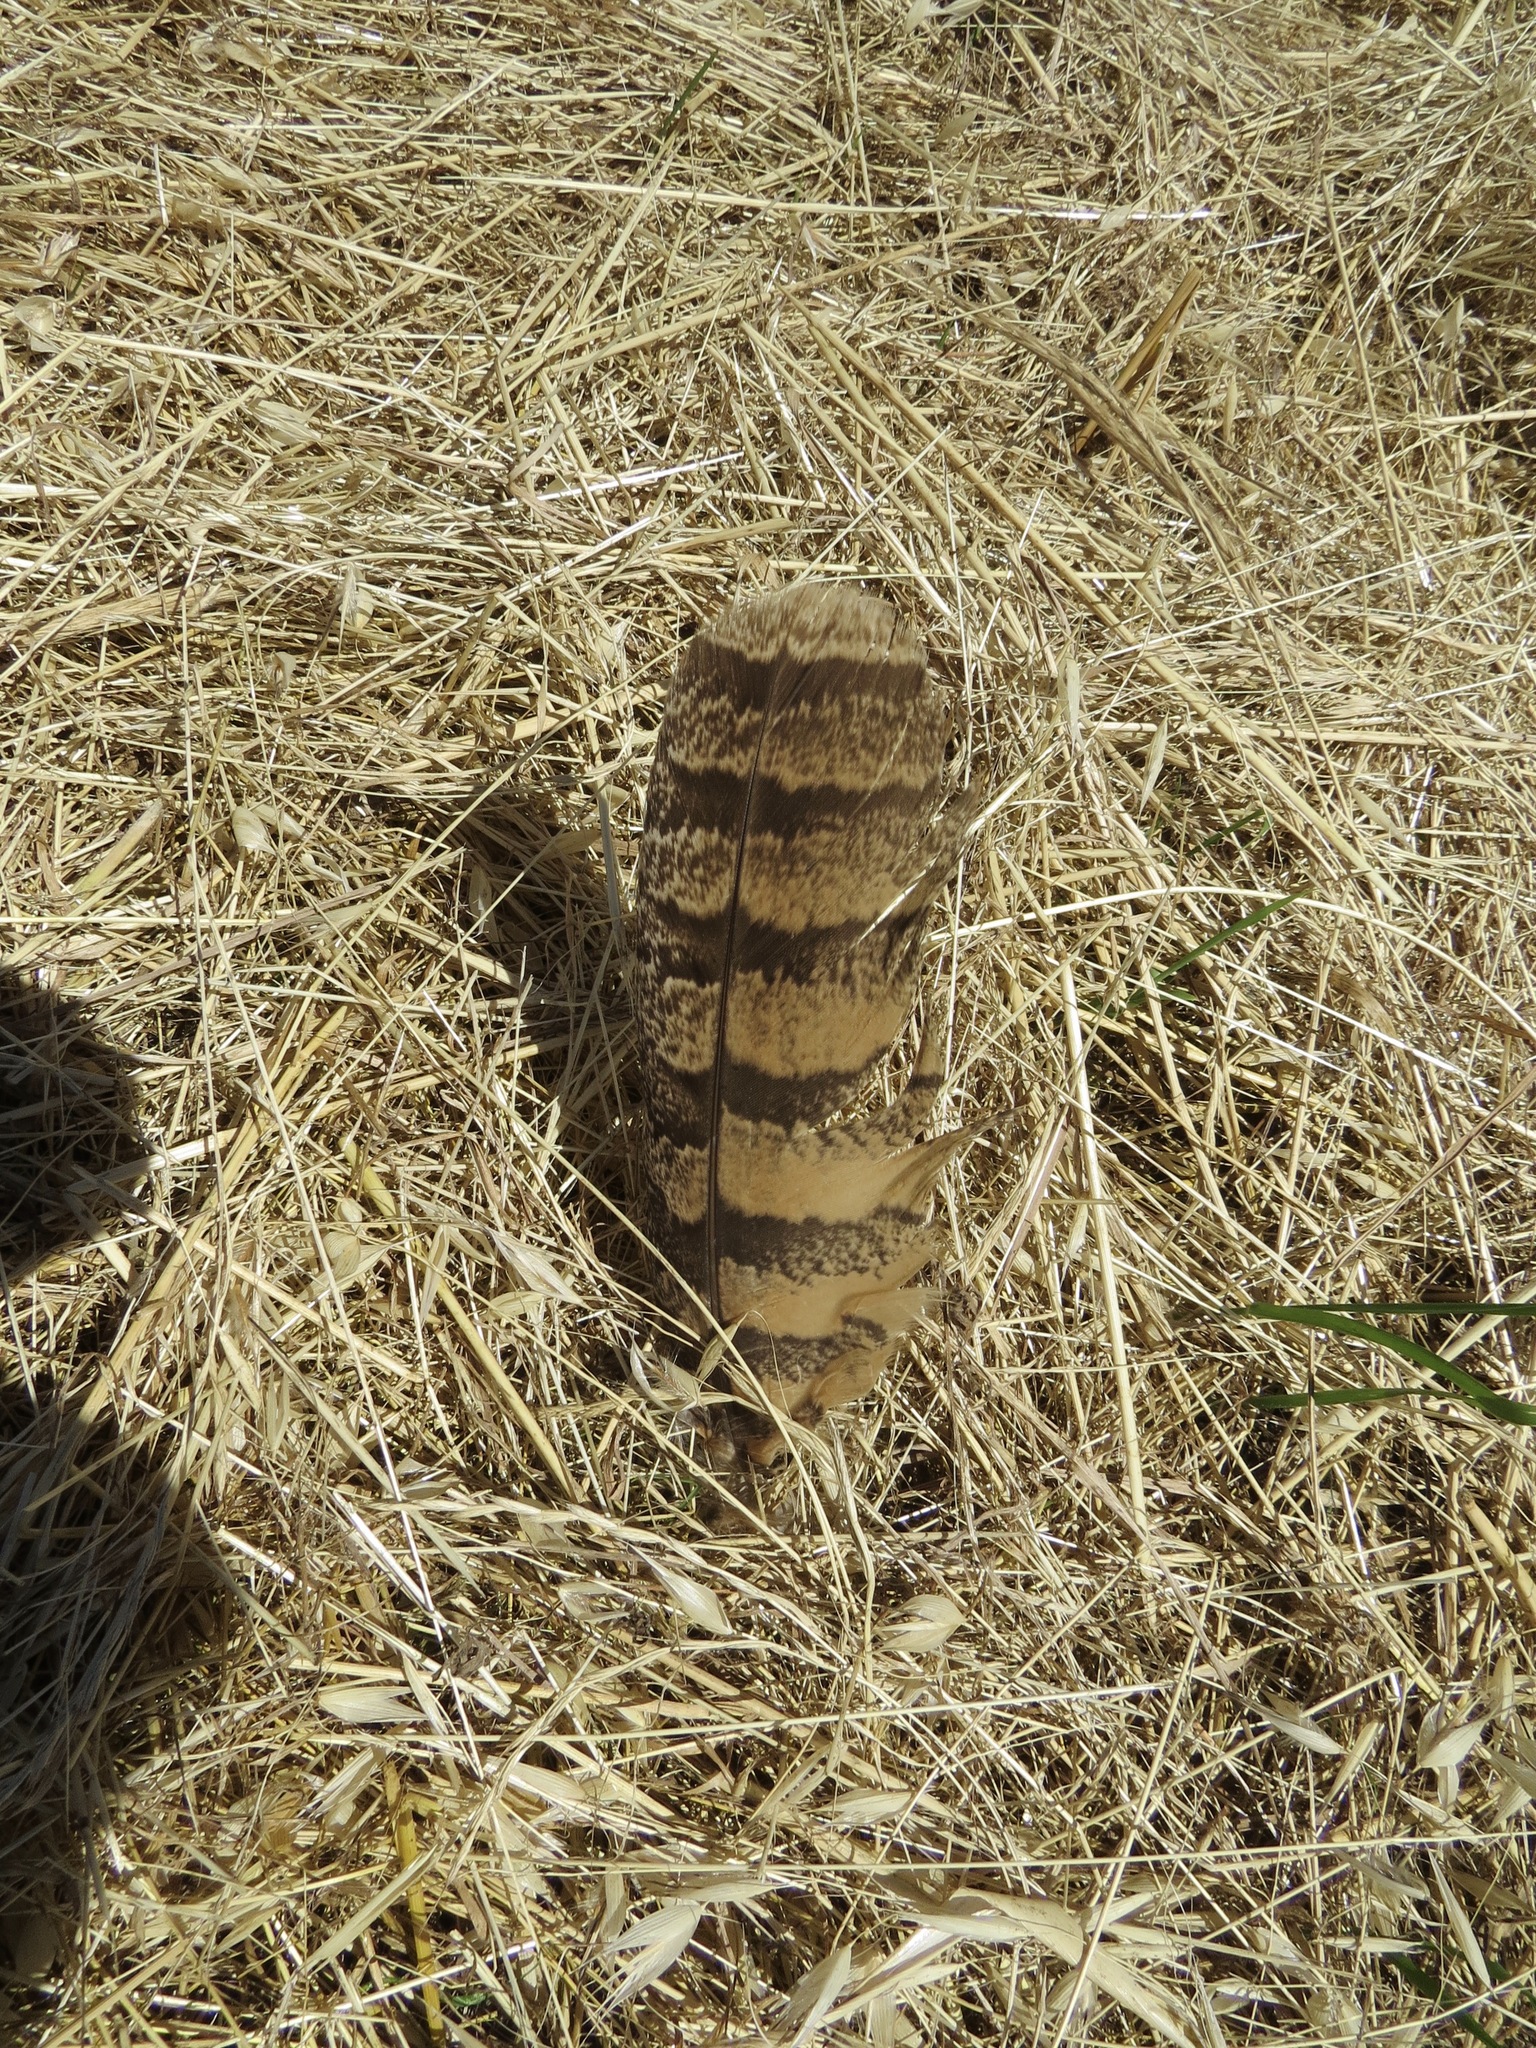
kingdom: Animalia
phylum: Chordata
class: Aves
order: Strigiformes
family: Strigidae
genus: Bubo
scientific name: Bubo virginianus
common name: Great horned owl
